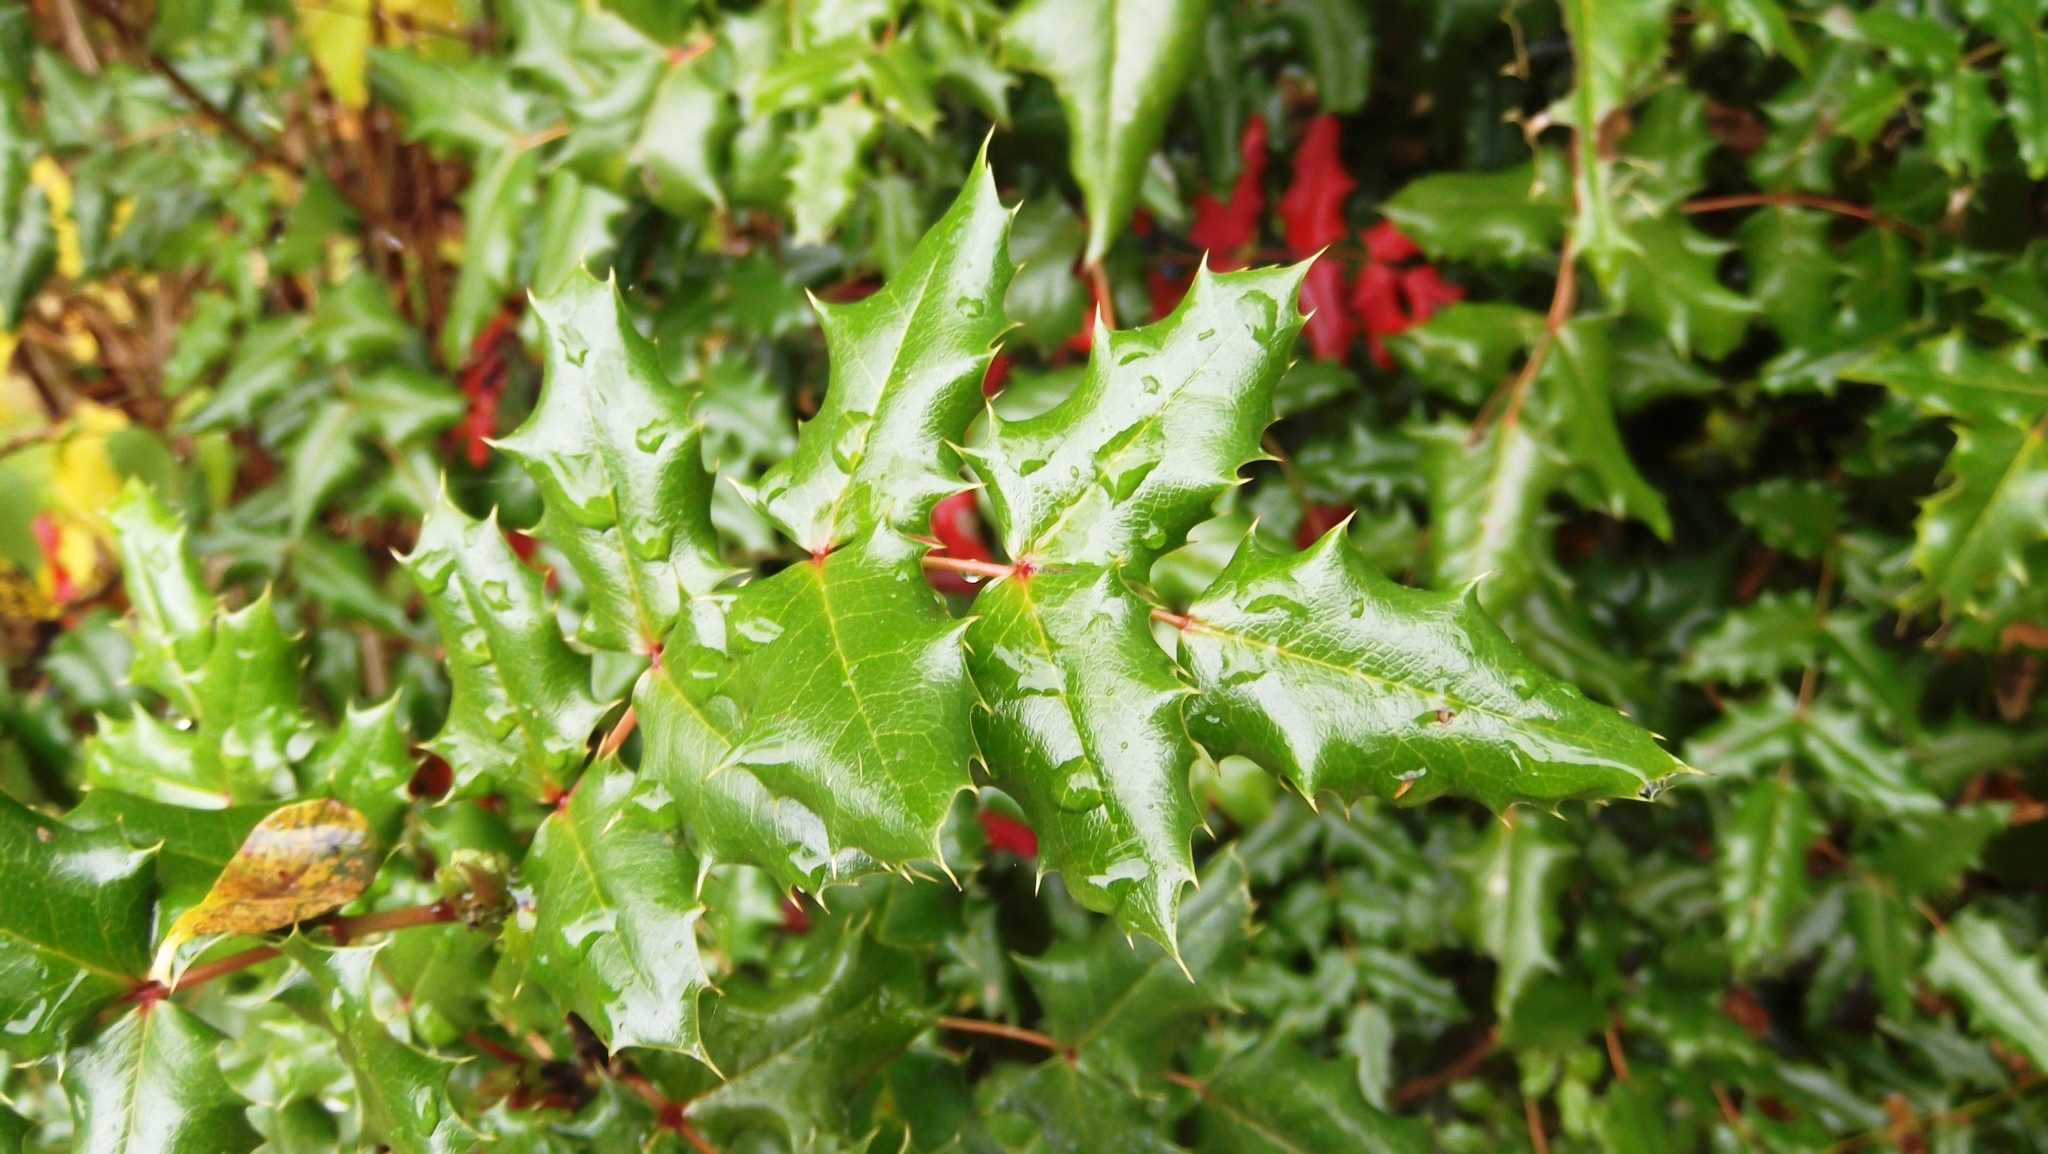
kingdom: Plantae
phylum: Tracheophyta
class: Magnoliopsida
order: Ranunculales
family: Berberidaceae
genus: Mahonia
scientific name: Mahonia aquifolium
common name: Oregon-grape
